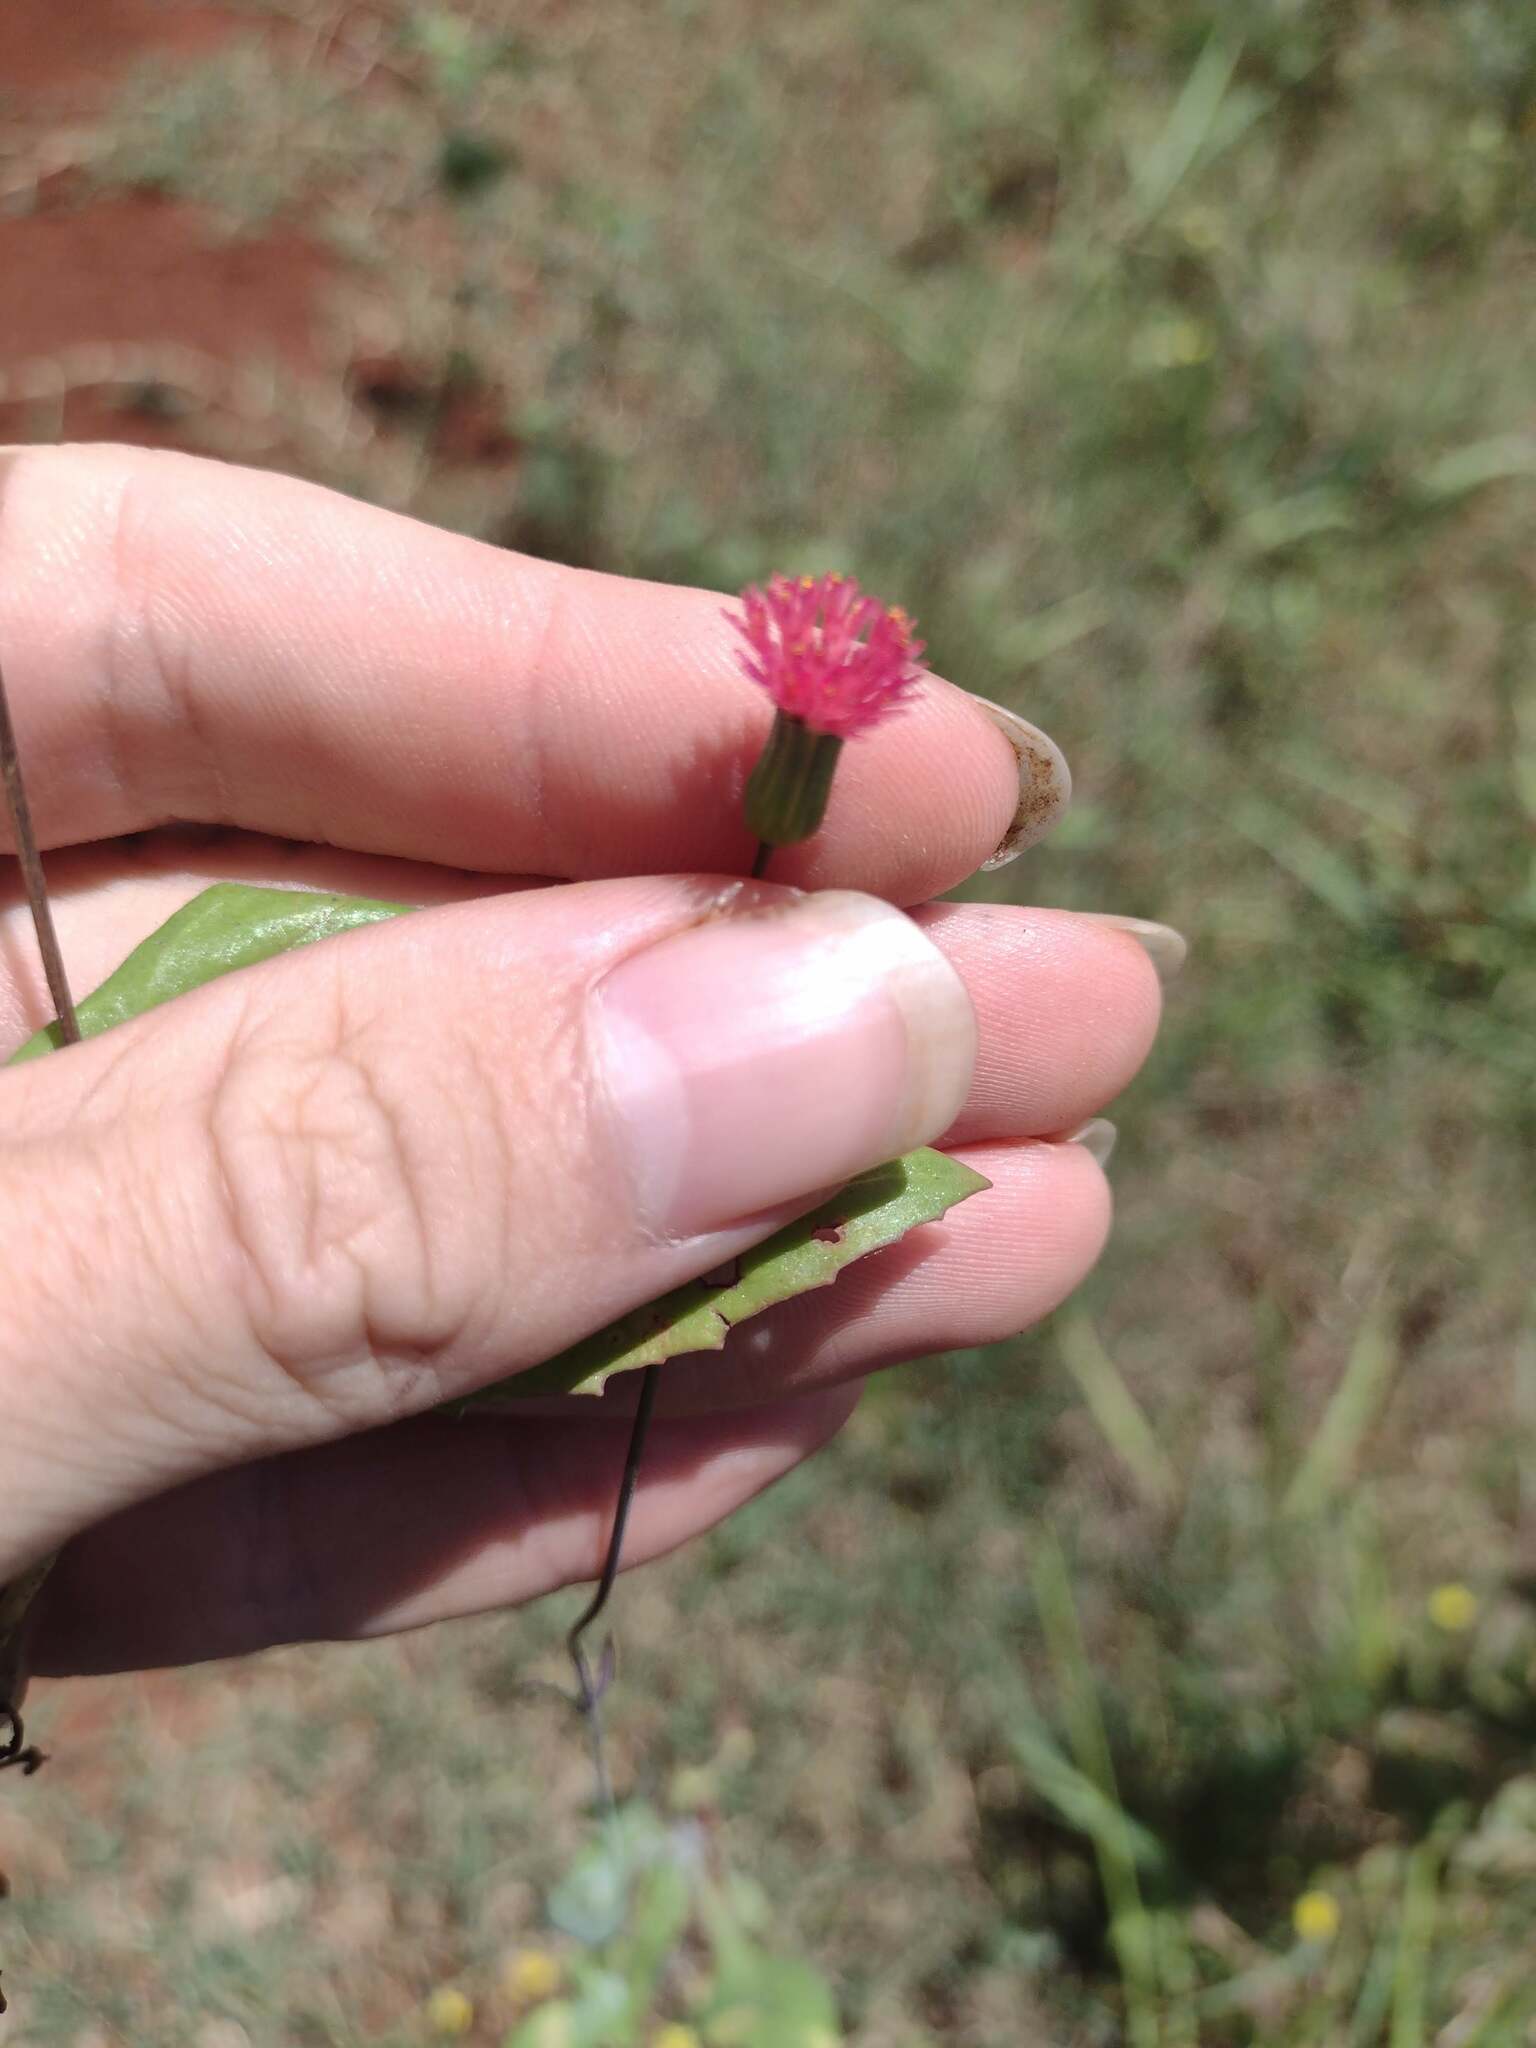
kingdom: Plantae
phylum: Tracheophyta
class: Magnoliopsida
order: Asterales
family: Asteraceae
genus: Emilia
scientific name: Emilia fosbergii
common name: Florida tasselflower
